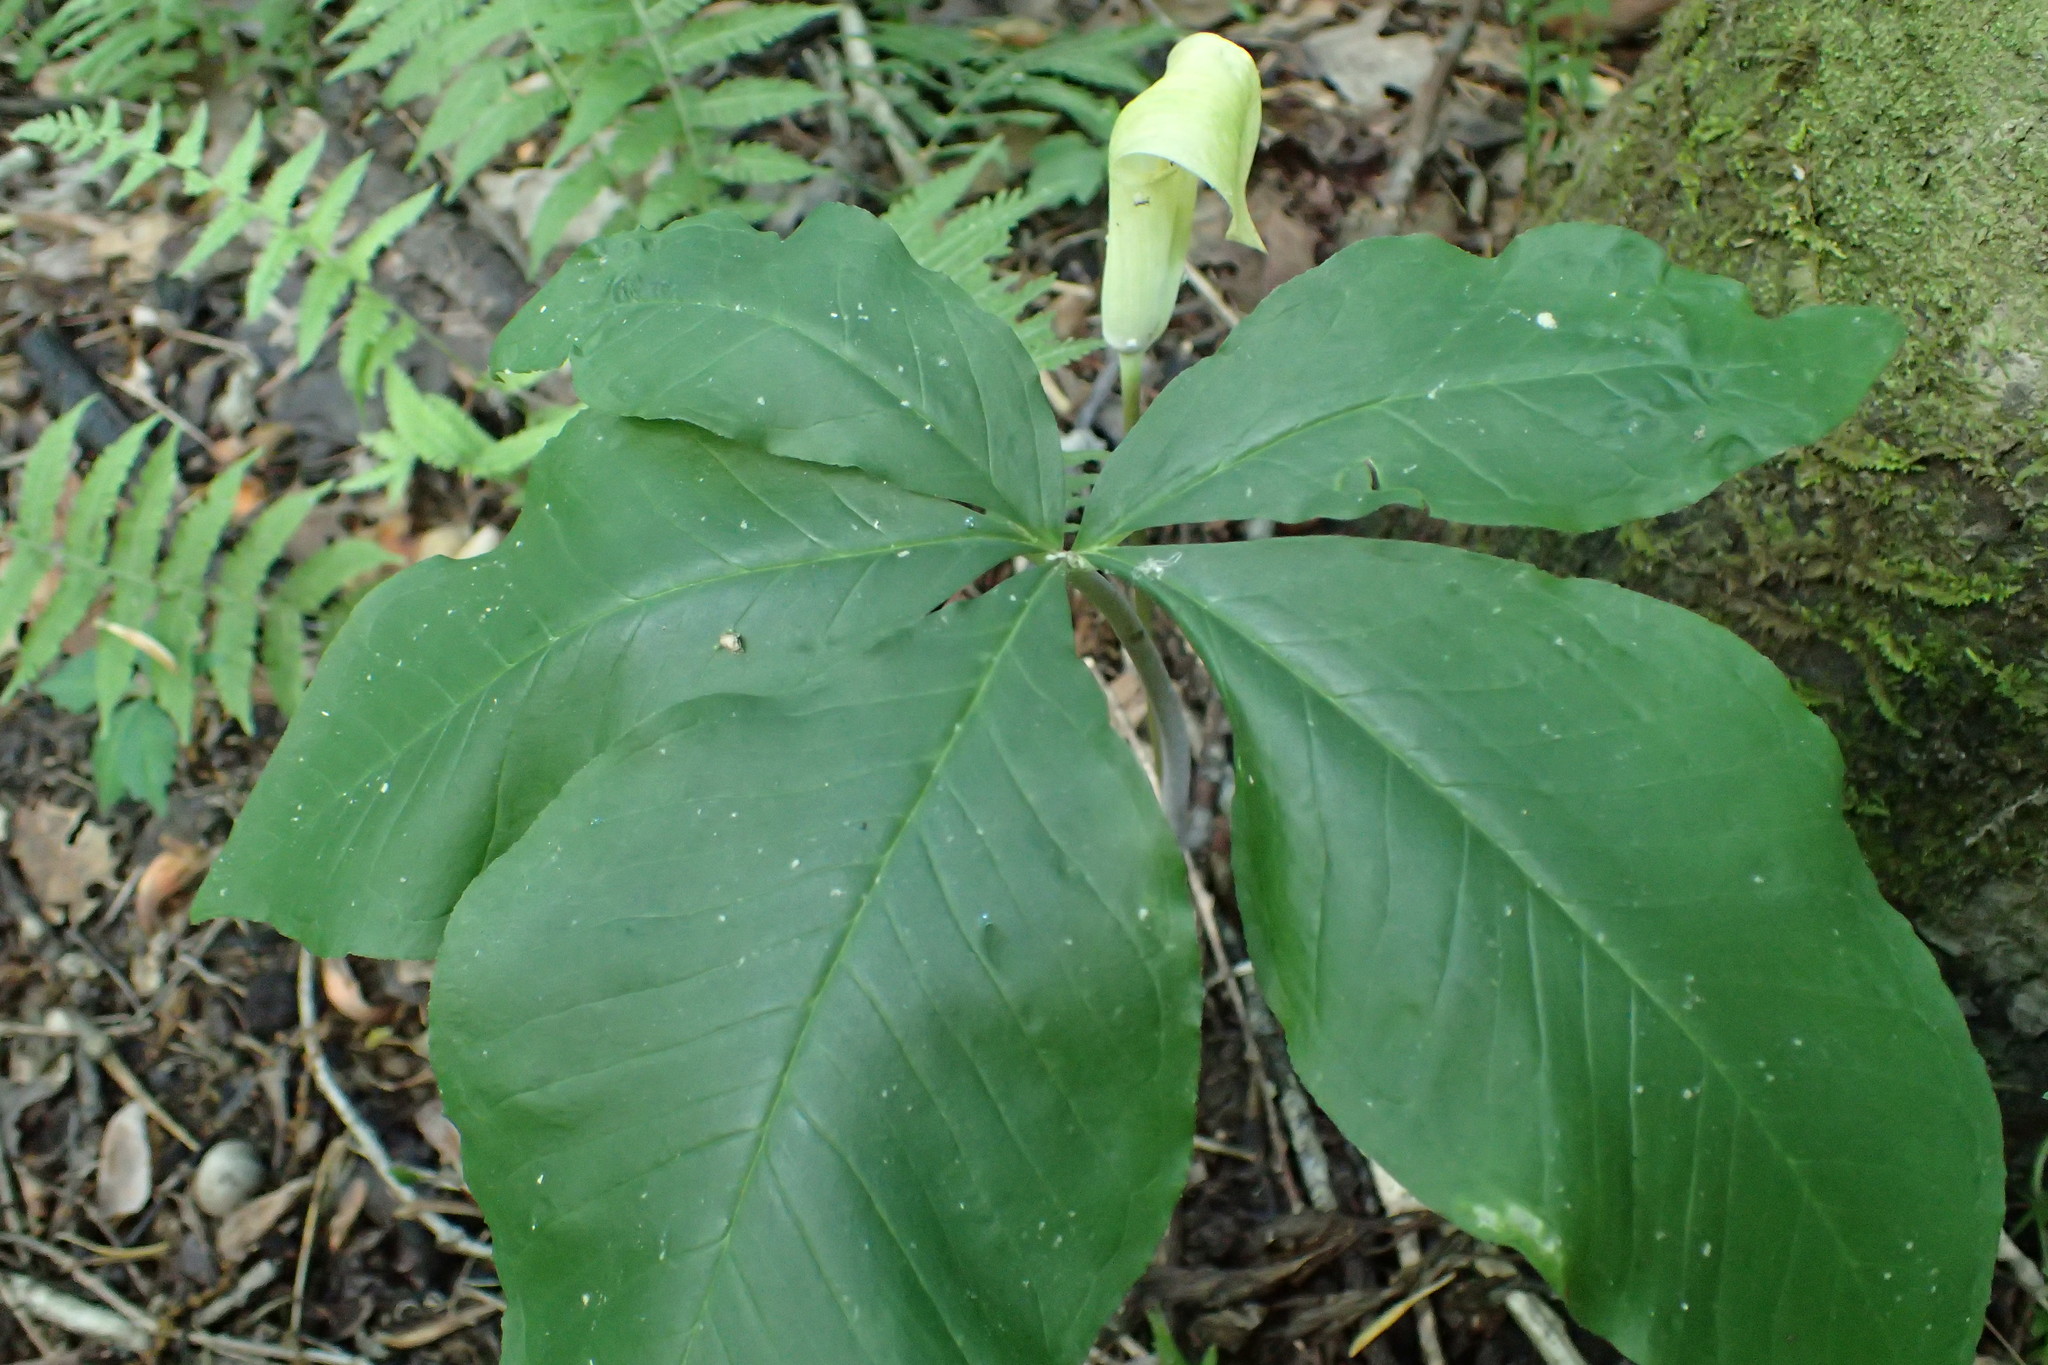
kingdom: Plantae
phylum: Tracheophyta
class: Liliopsida
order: Alismatales
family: Araceae
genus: Arisaema
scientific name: Arisaema quinatum
